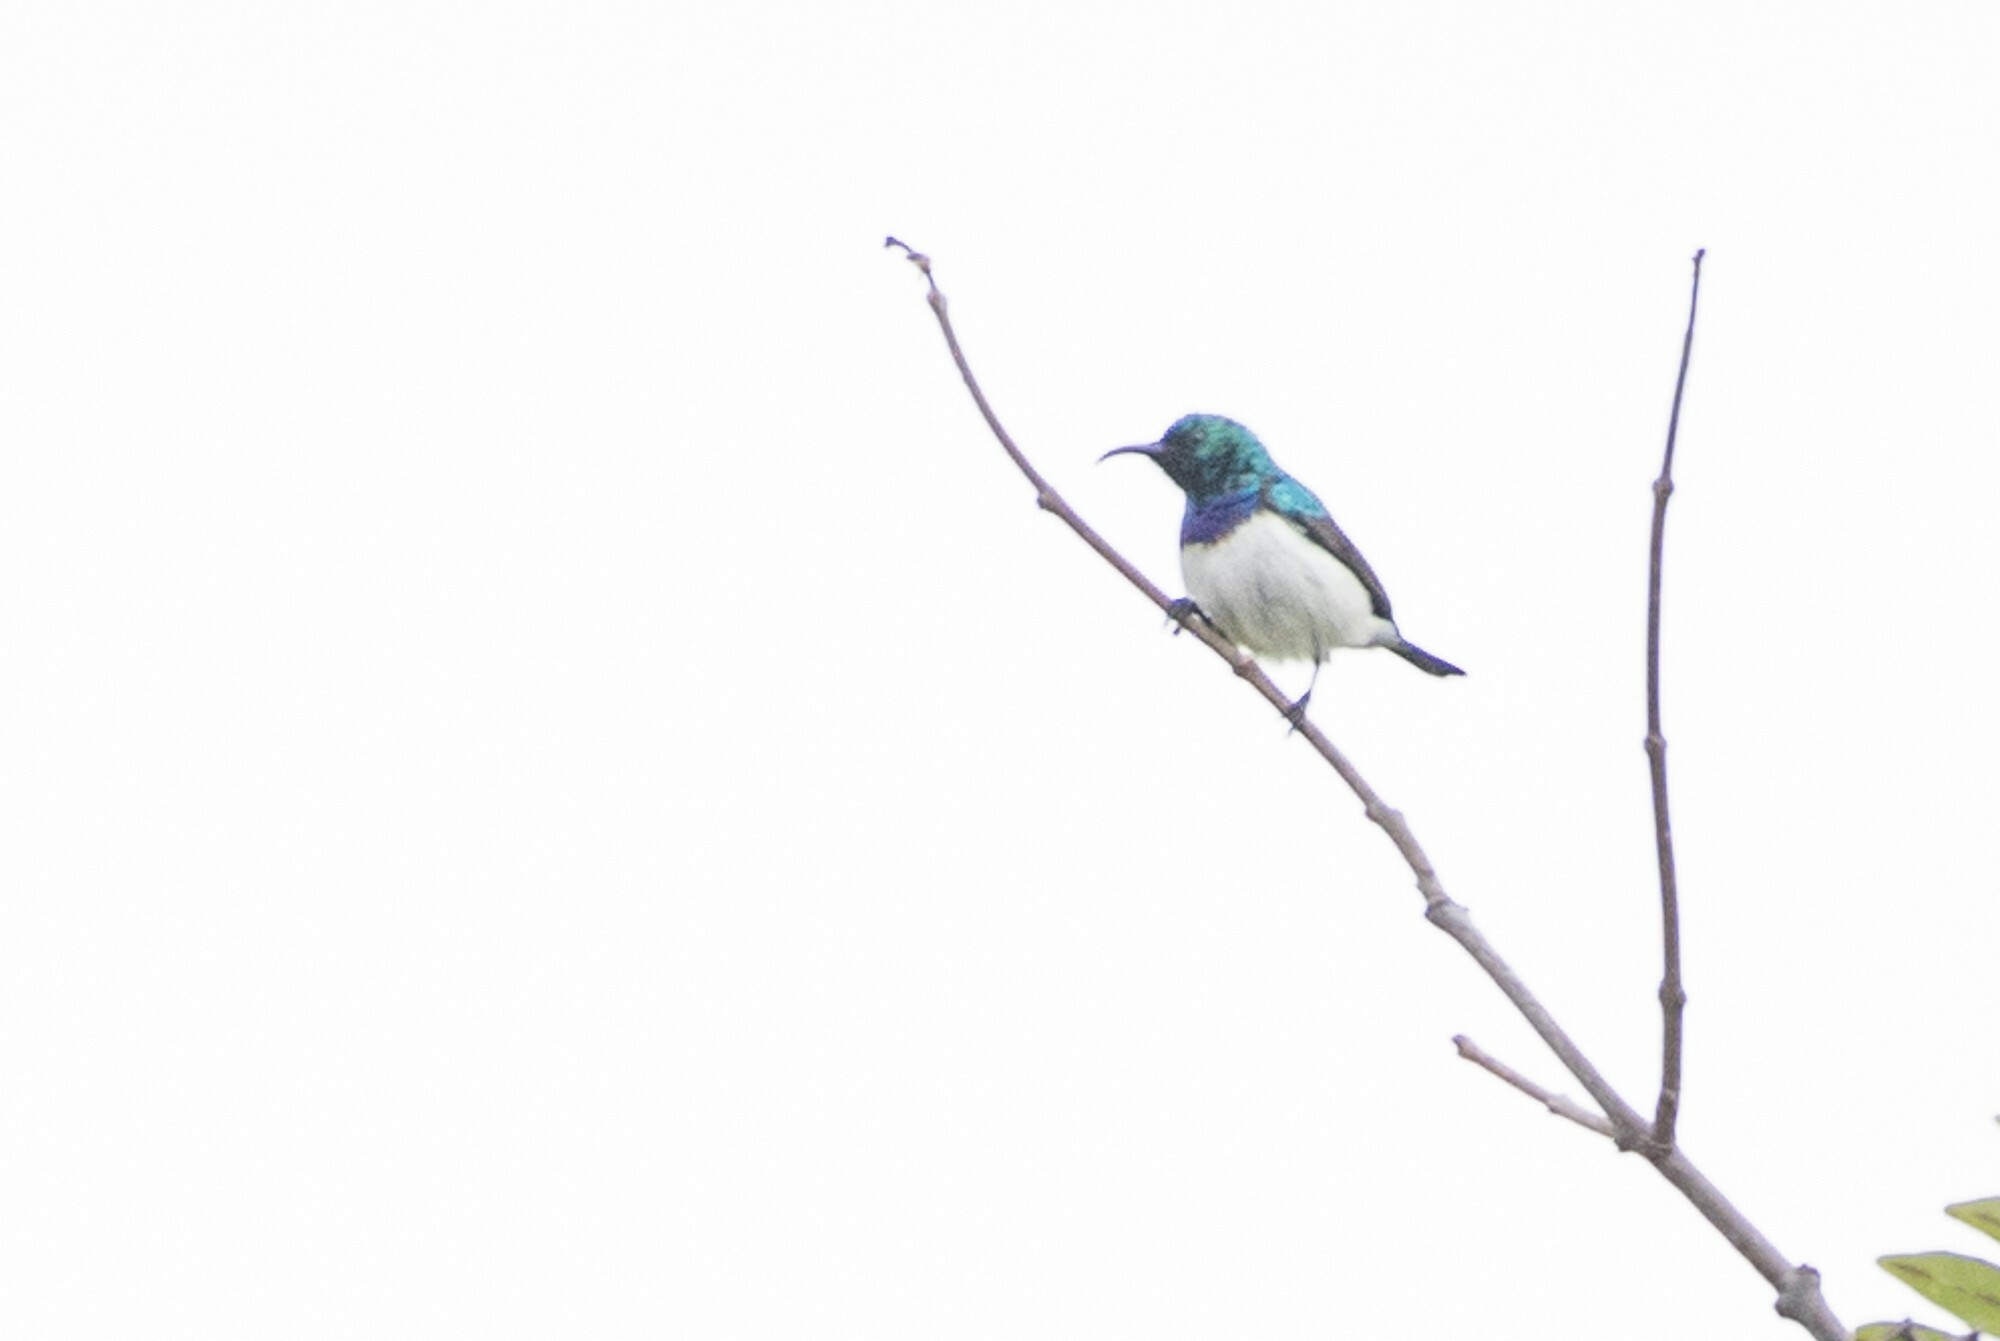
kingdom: Animalia
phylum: Chordata
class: Aves
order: Passeriformes
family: Nectariniidae
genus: Cinnyris
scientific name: Cinnyris talatala
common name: White-bellied sunbird
